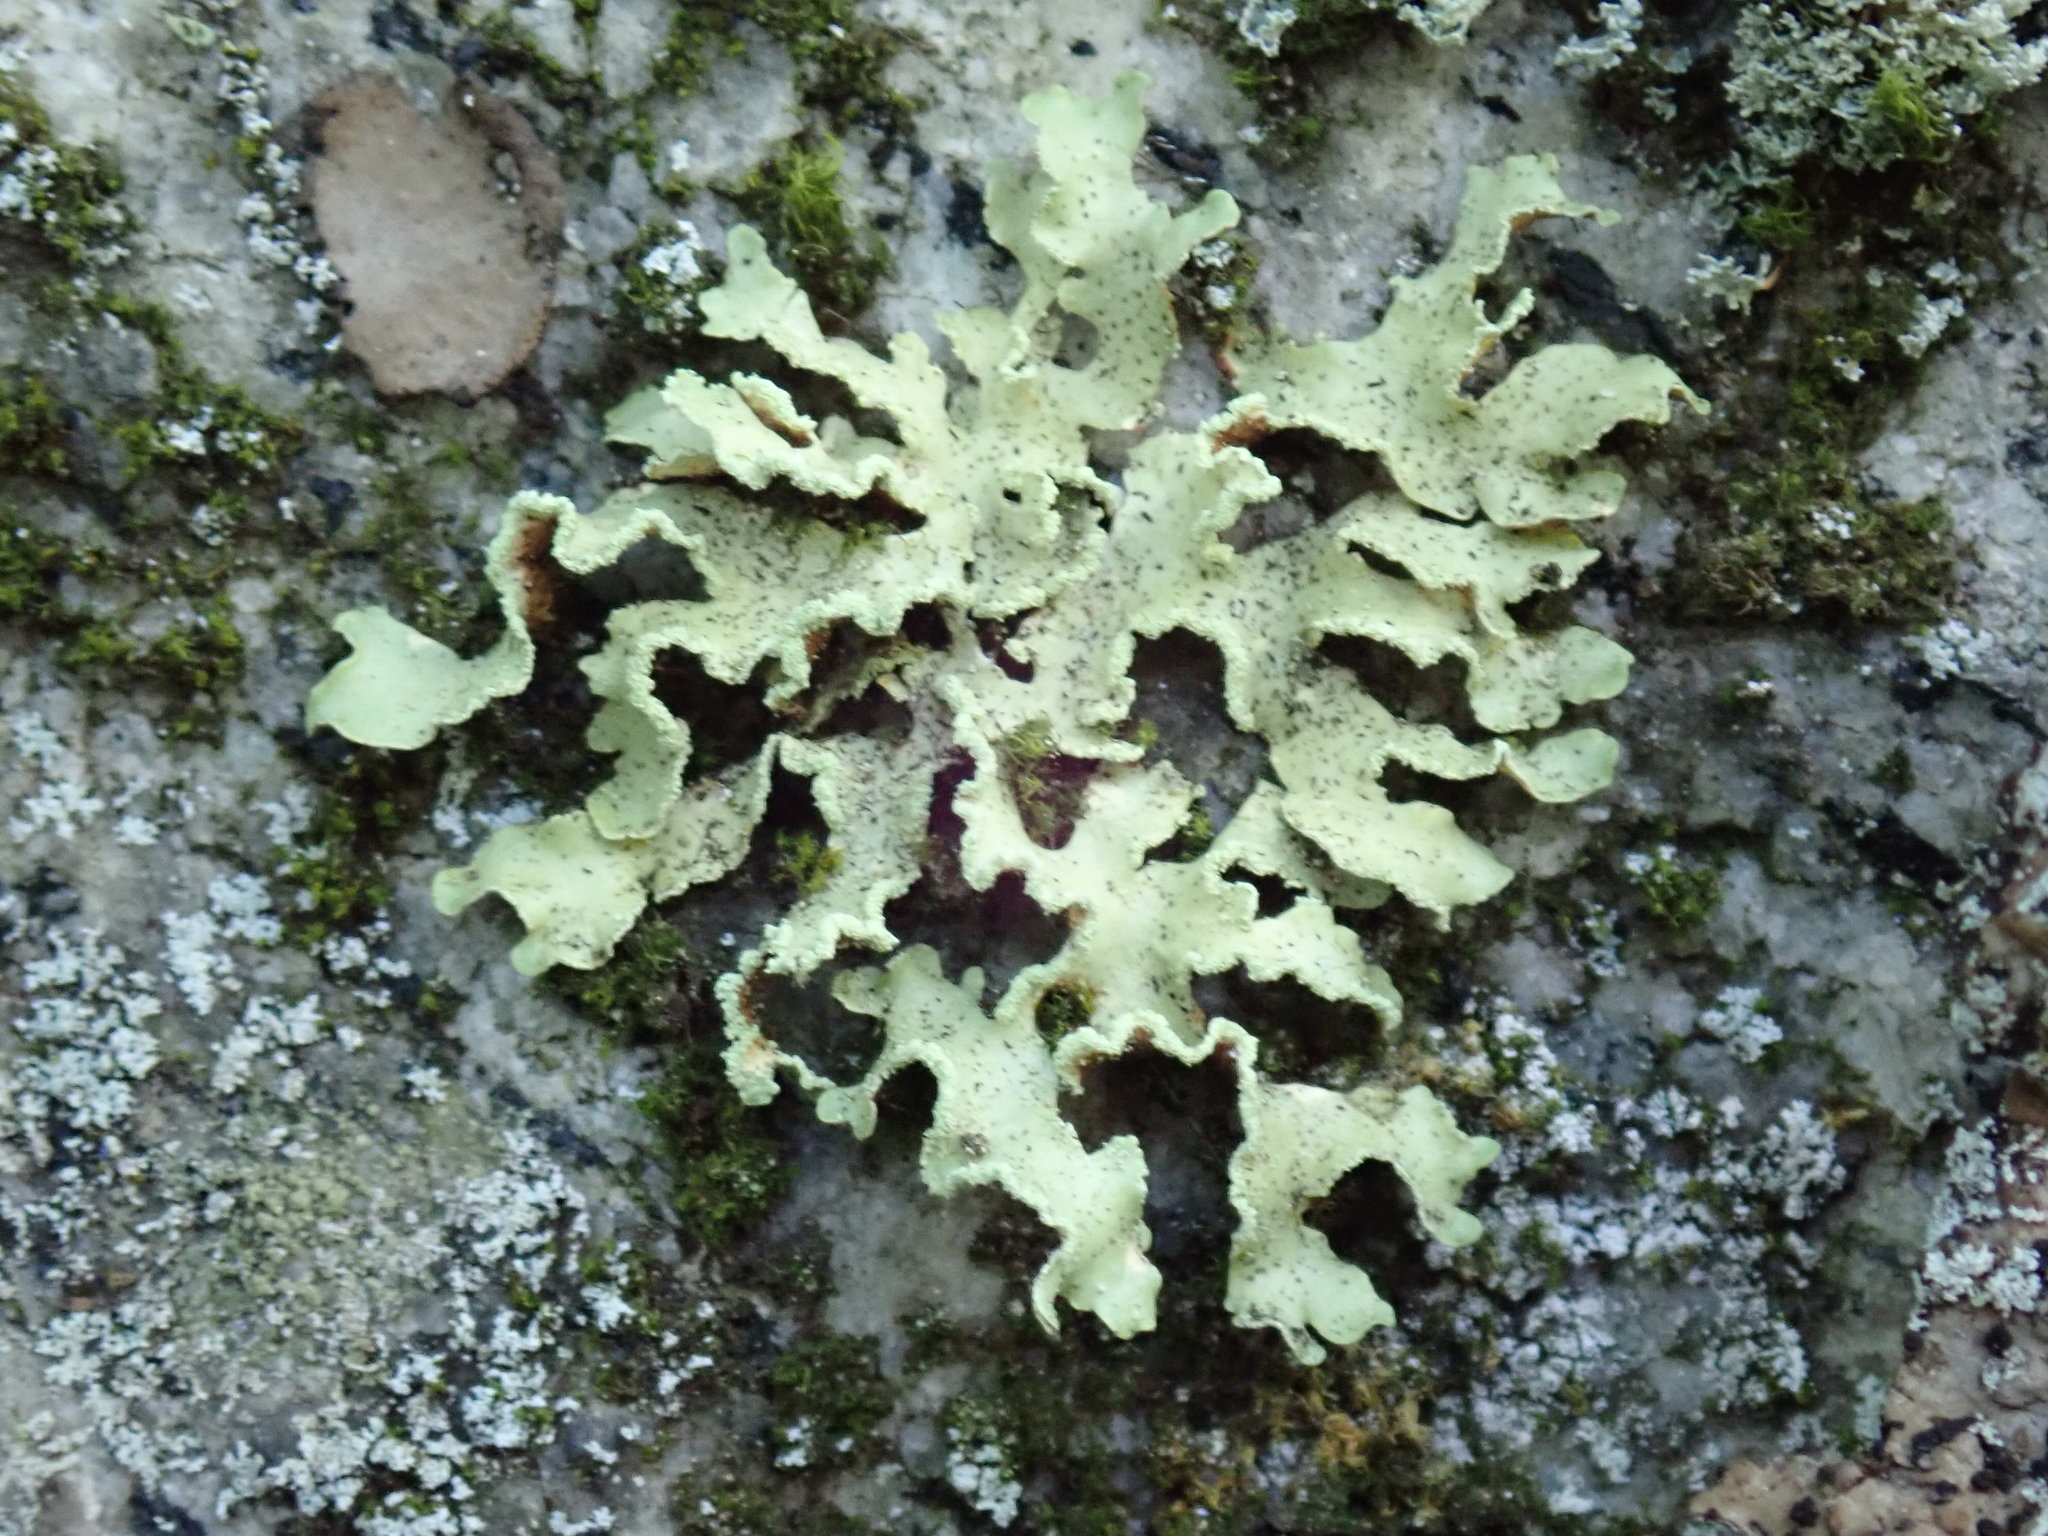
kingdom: Fungi
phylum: Ascomycota
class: Lecanoromycetes
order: Lecanorales
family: Parmeliaceae
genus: Usnocetraria
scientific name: Usnocetraria oakesiana
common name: Yellow ribbon lichen
